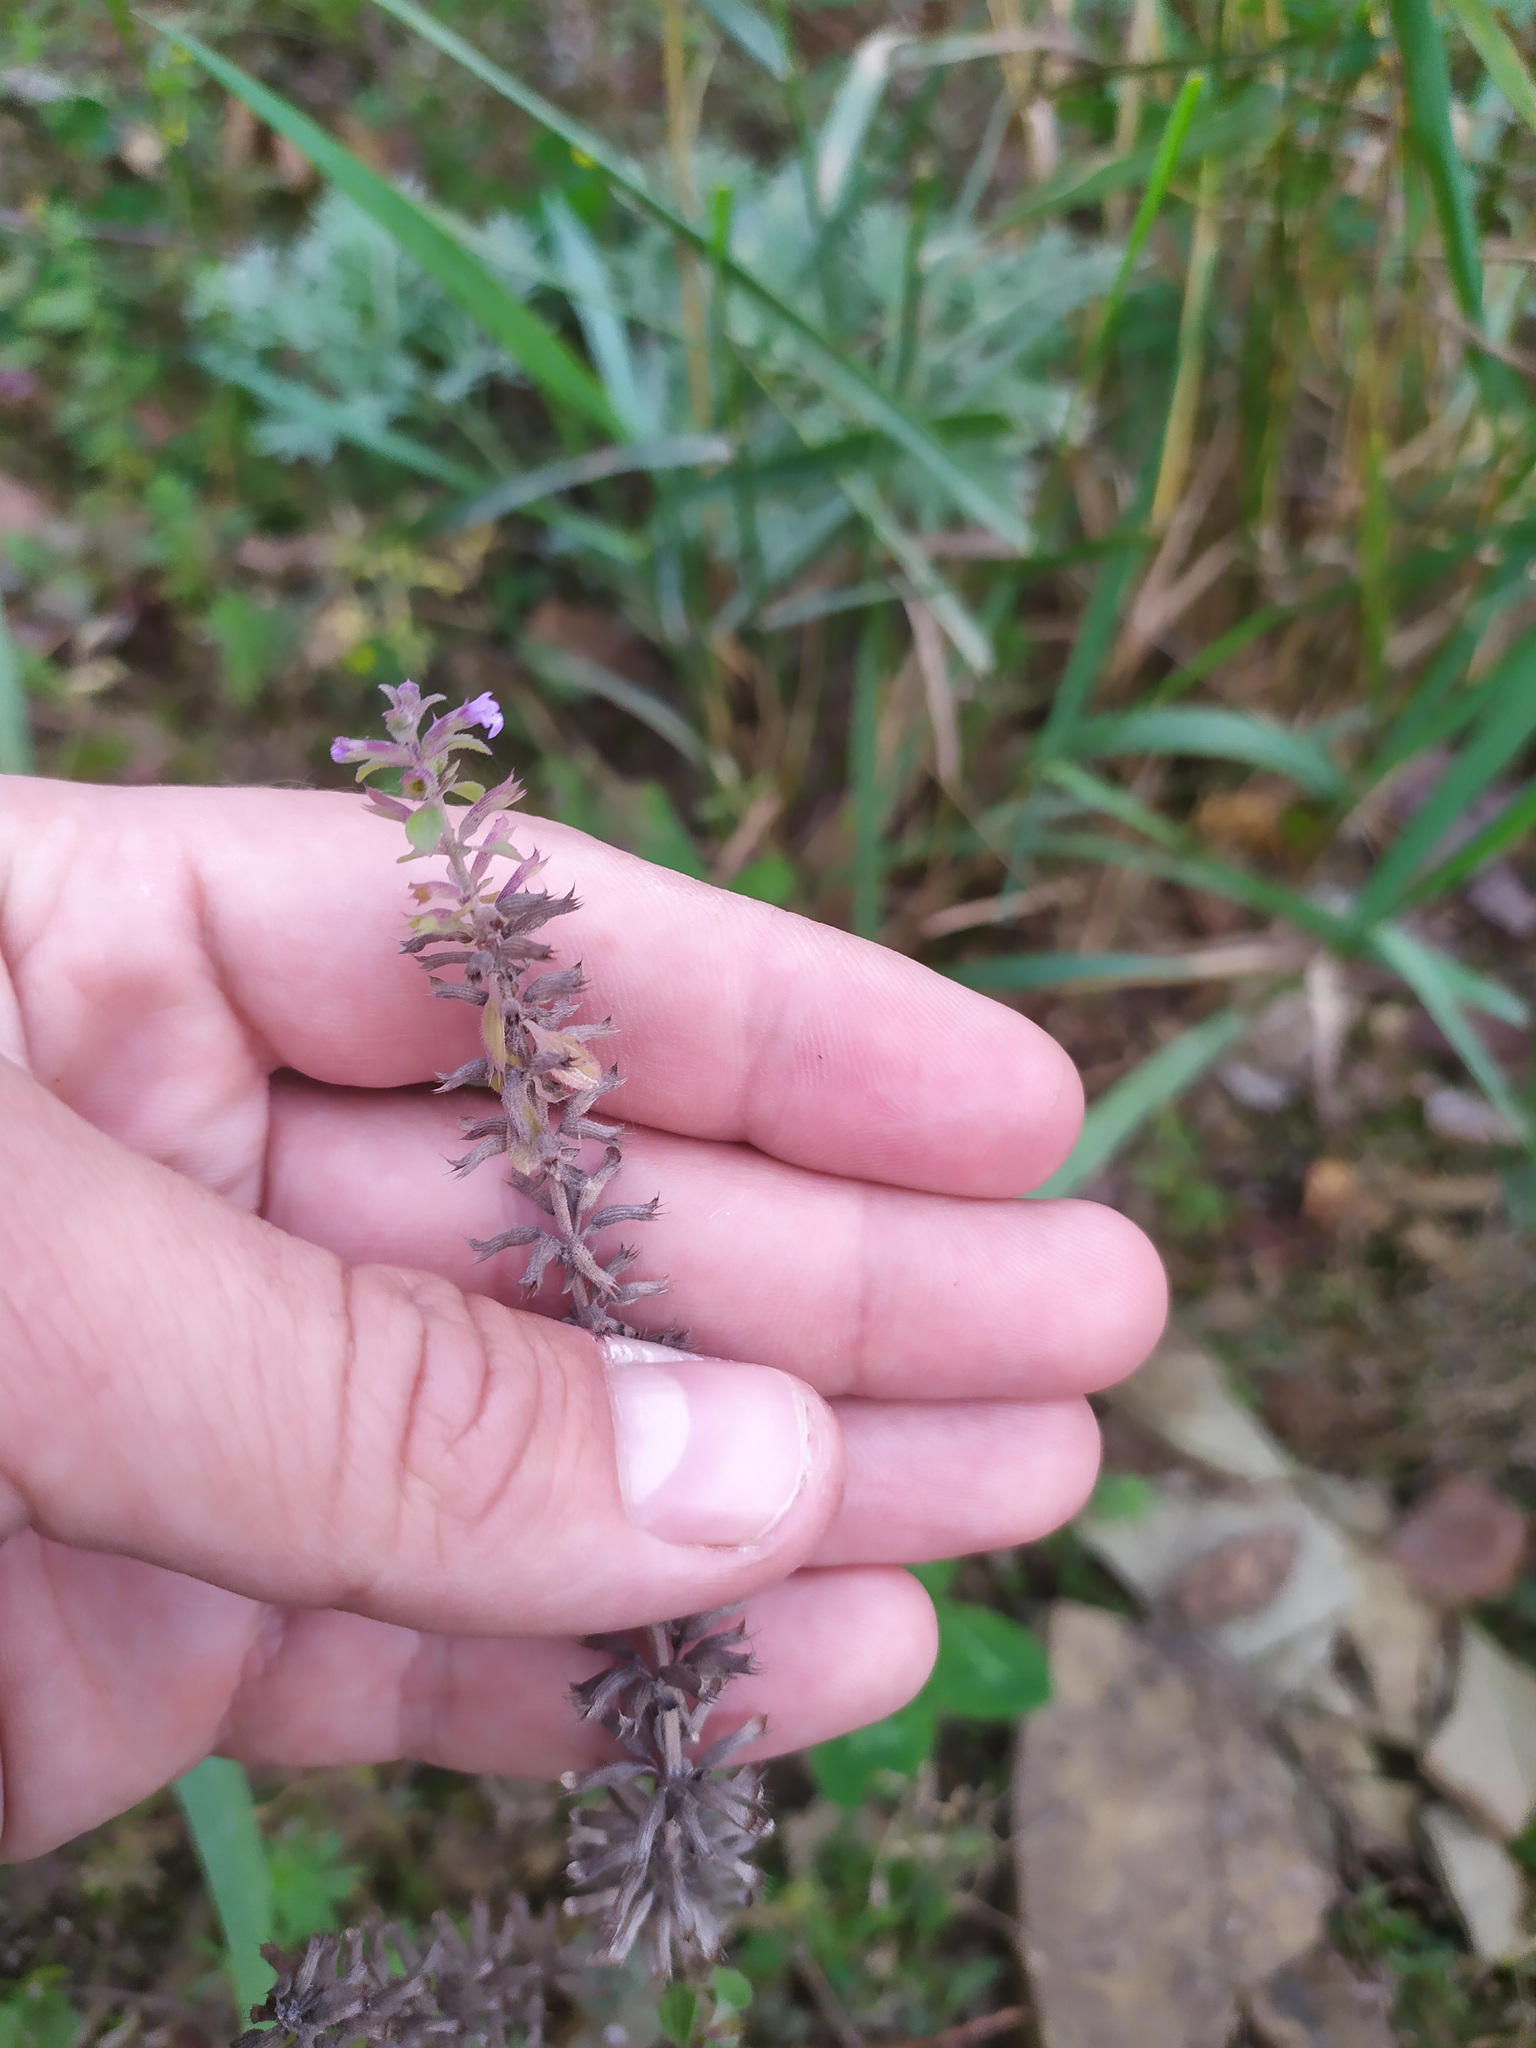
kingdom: Plantae
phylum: Tracheophyta
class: Magnoliopsida
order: Lamiales
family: Lamiaceae
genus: Dracocephalum
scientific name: Dracocephalum thymiflorum
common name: Thymeleaf dragonhead
